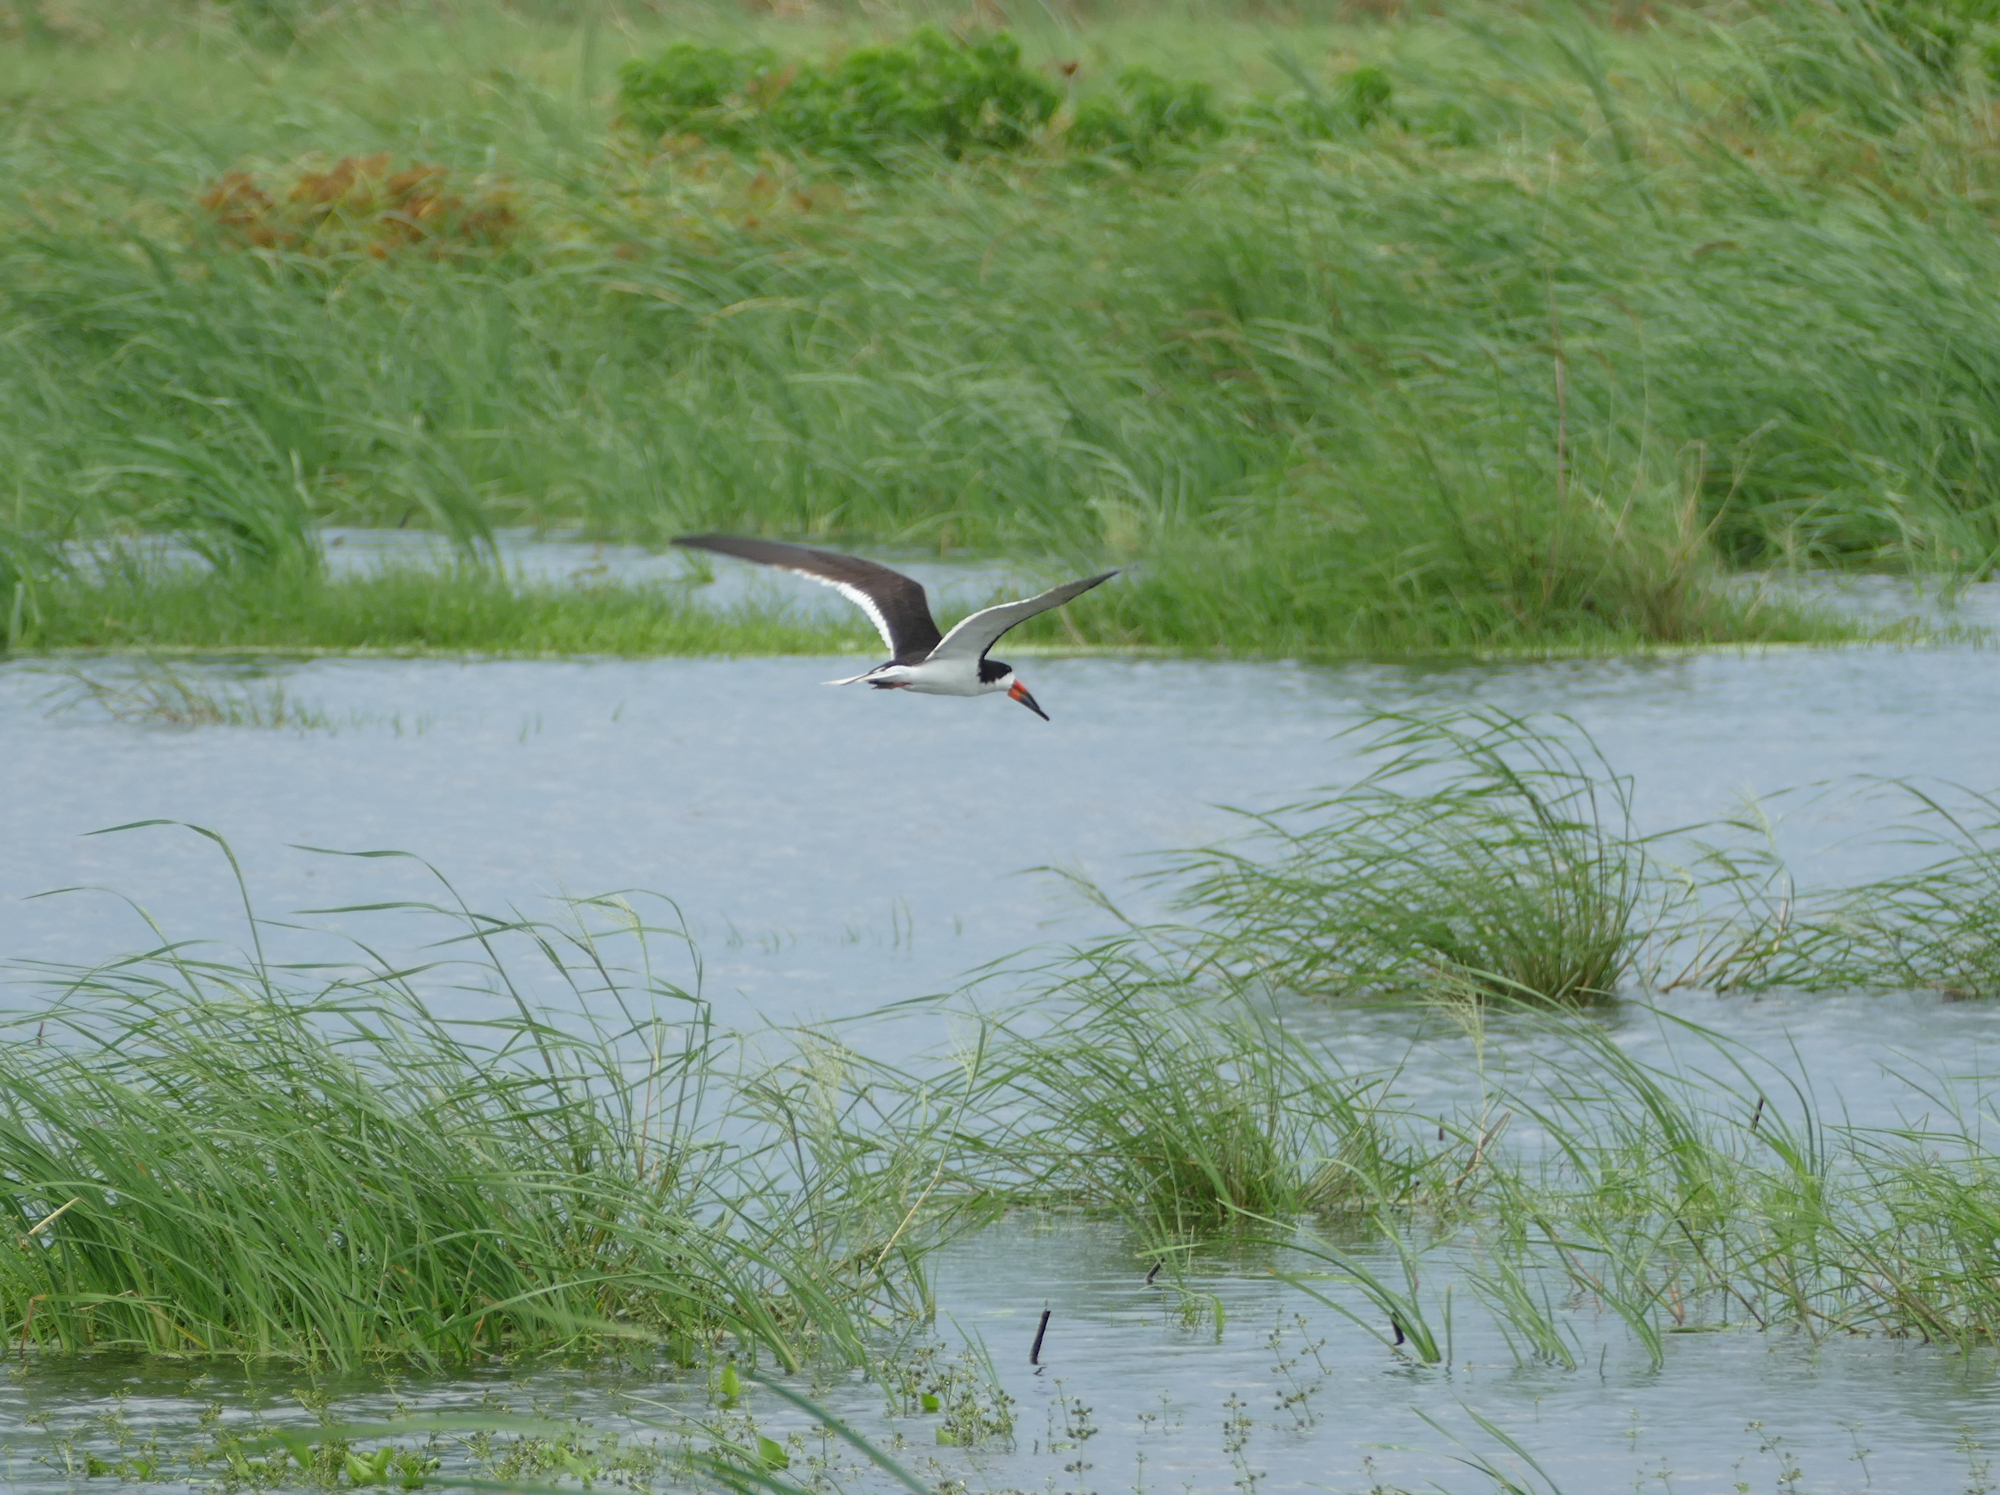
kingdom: Animalia
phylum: Chordata
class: Aves
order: Charadriiformes
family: Laridae
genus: Rynchops
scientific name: Rynchops niger
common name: Black skimmer
